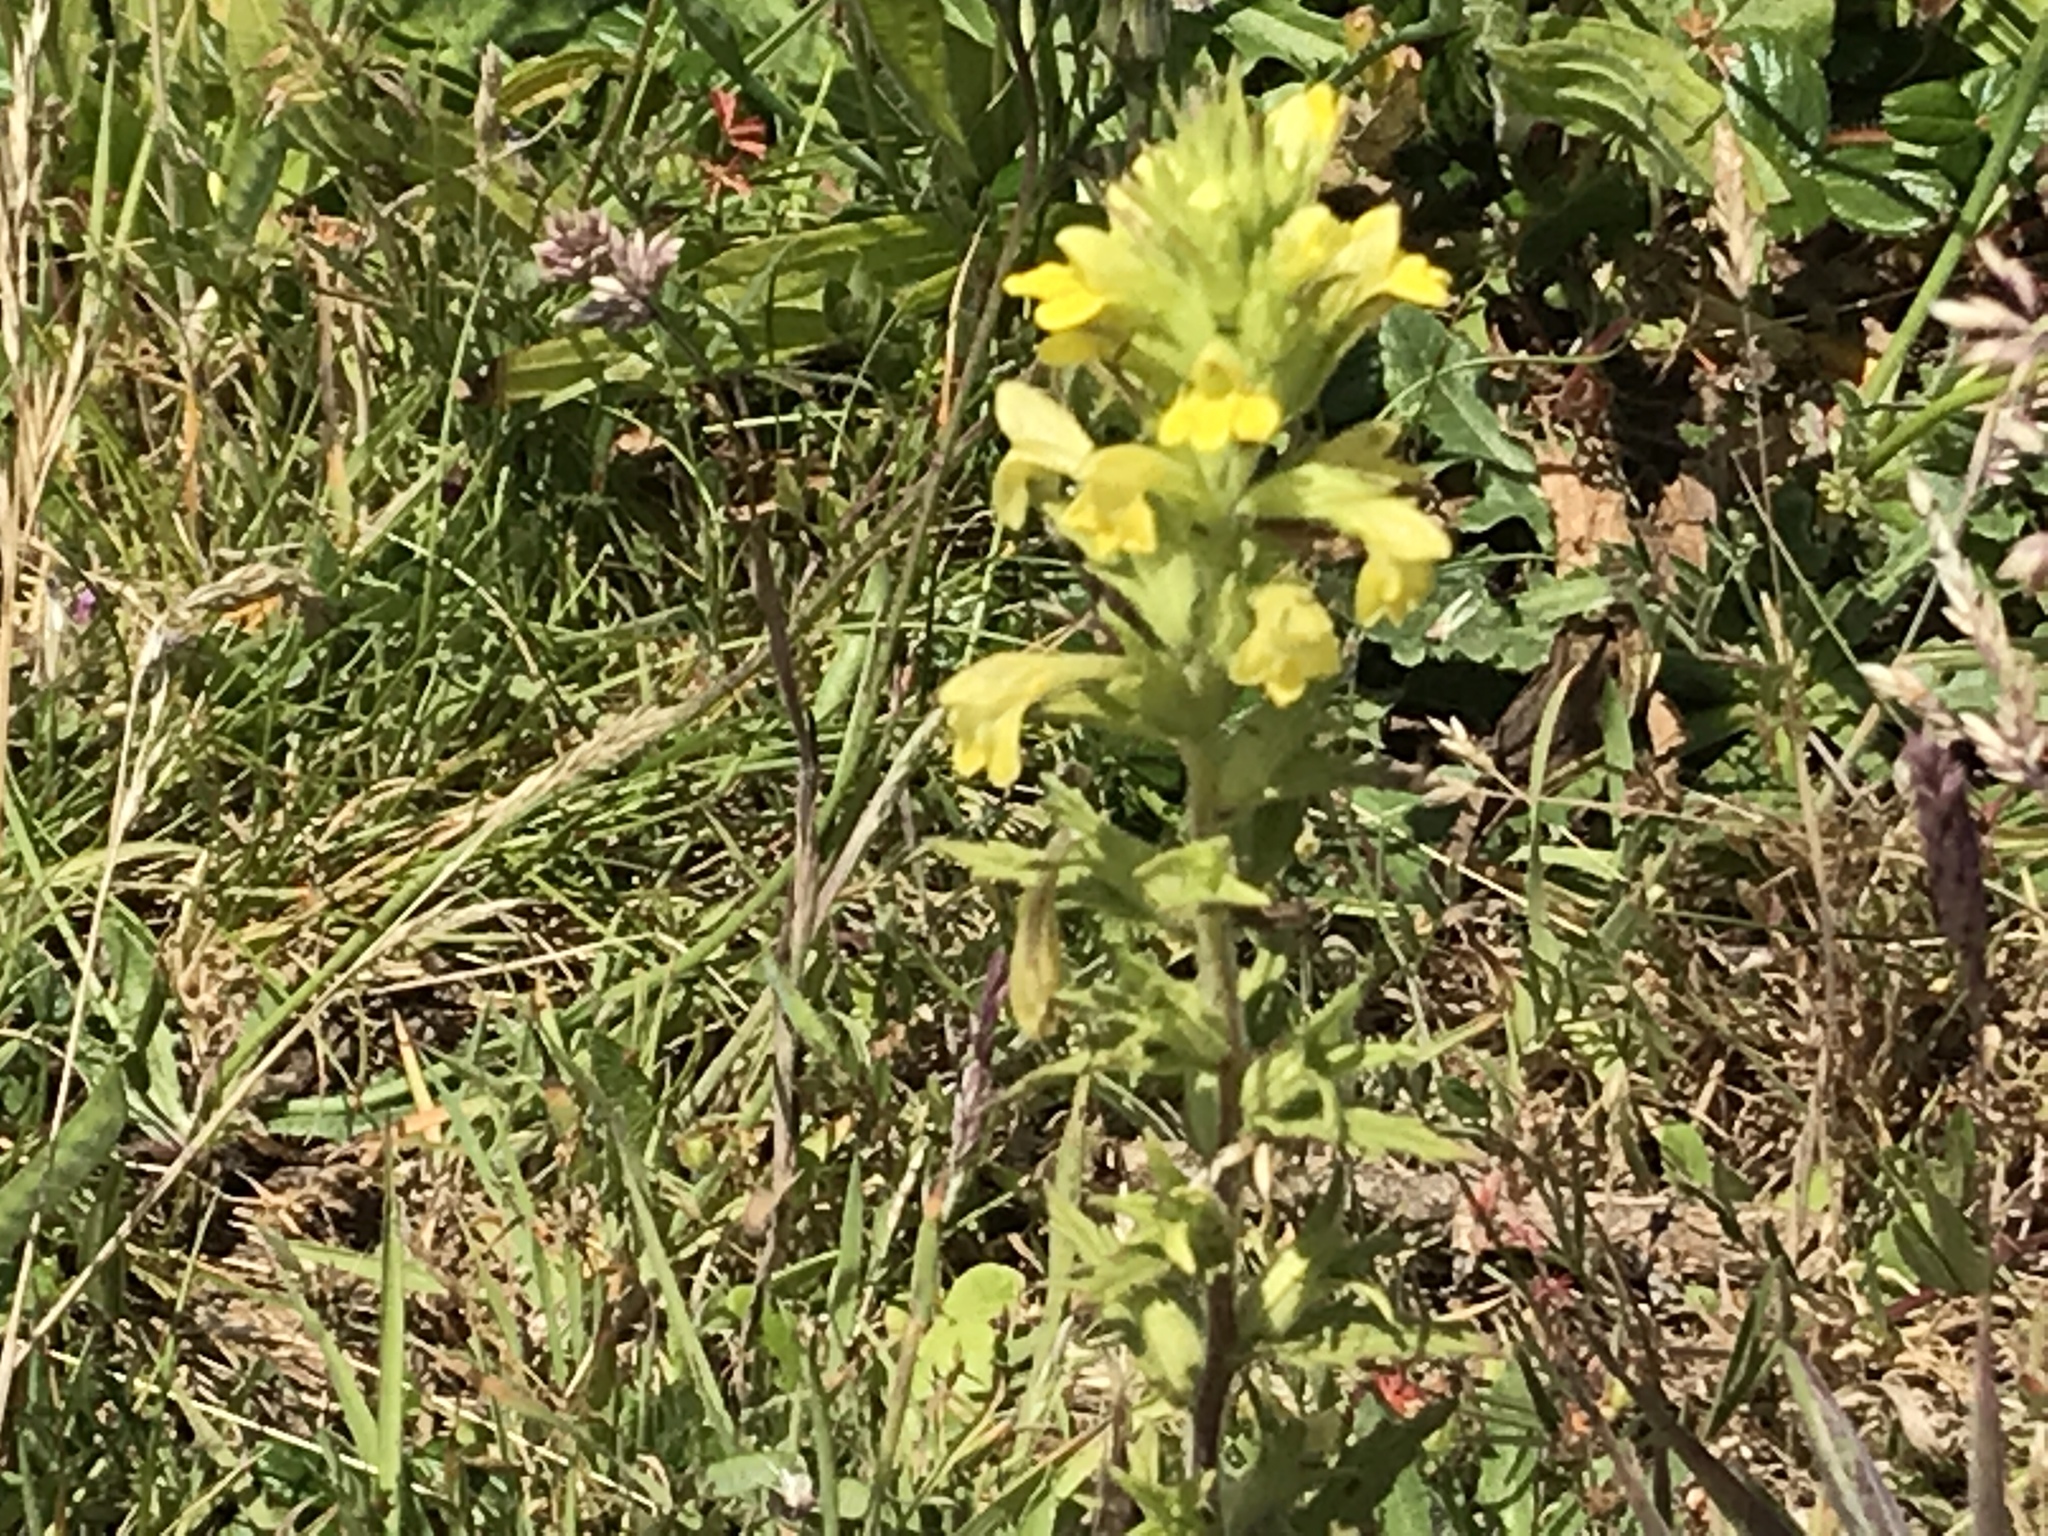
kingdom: Plantae
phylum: Tracheophyta
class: Magnoliopsida
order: Lamiales
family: Orobanchaceae
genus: Bellardia
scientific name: Bellardia viscosa
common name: Sticky parentucellia
